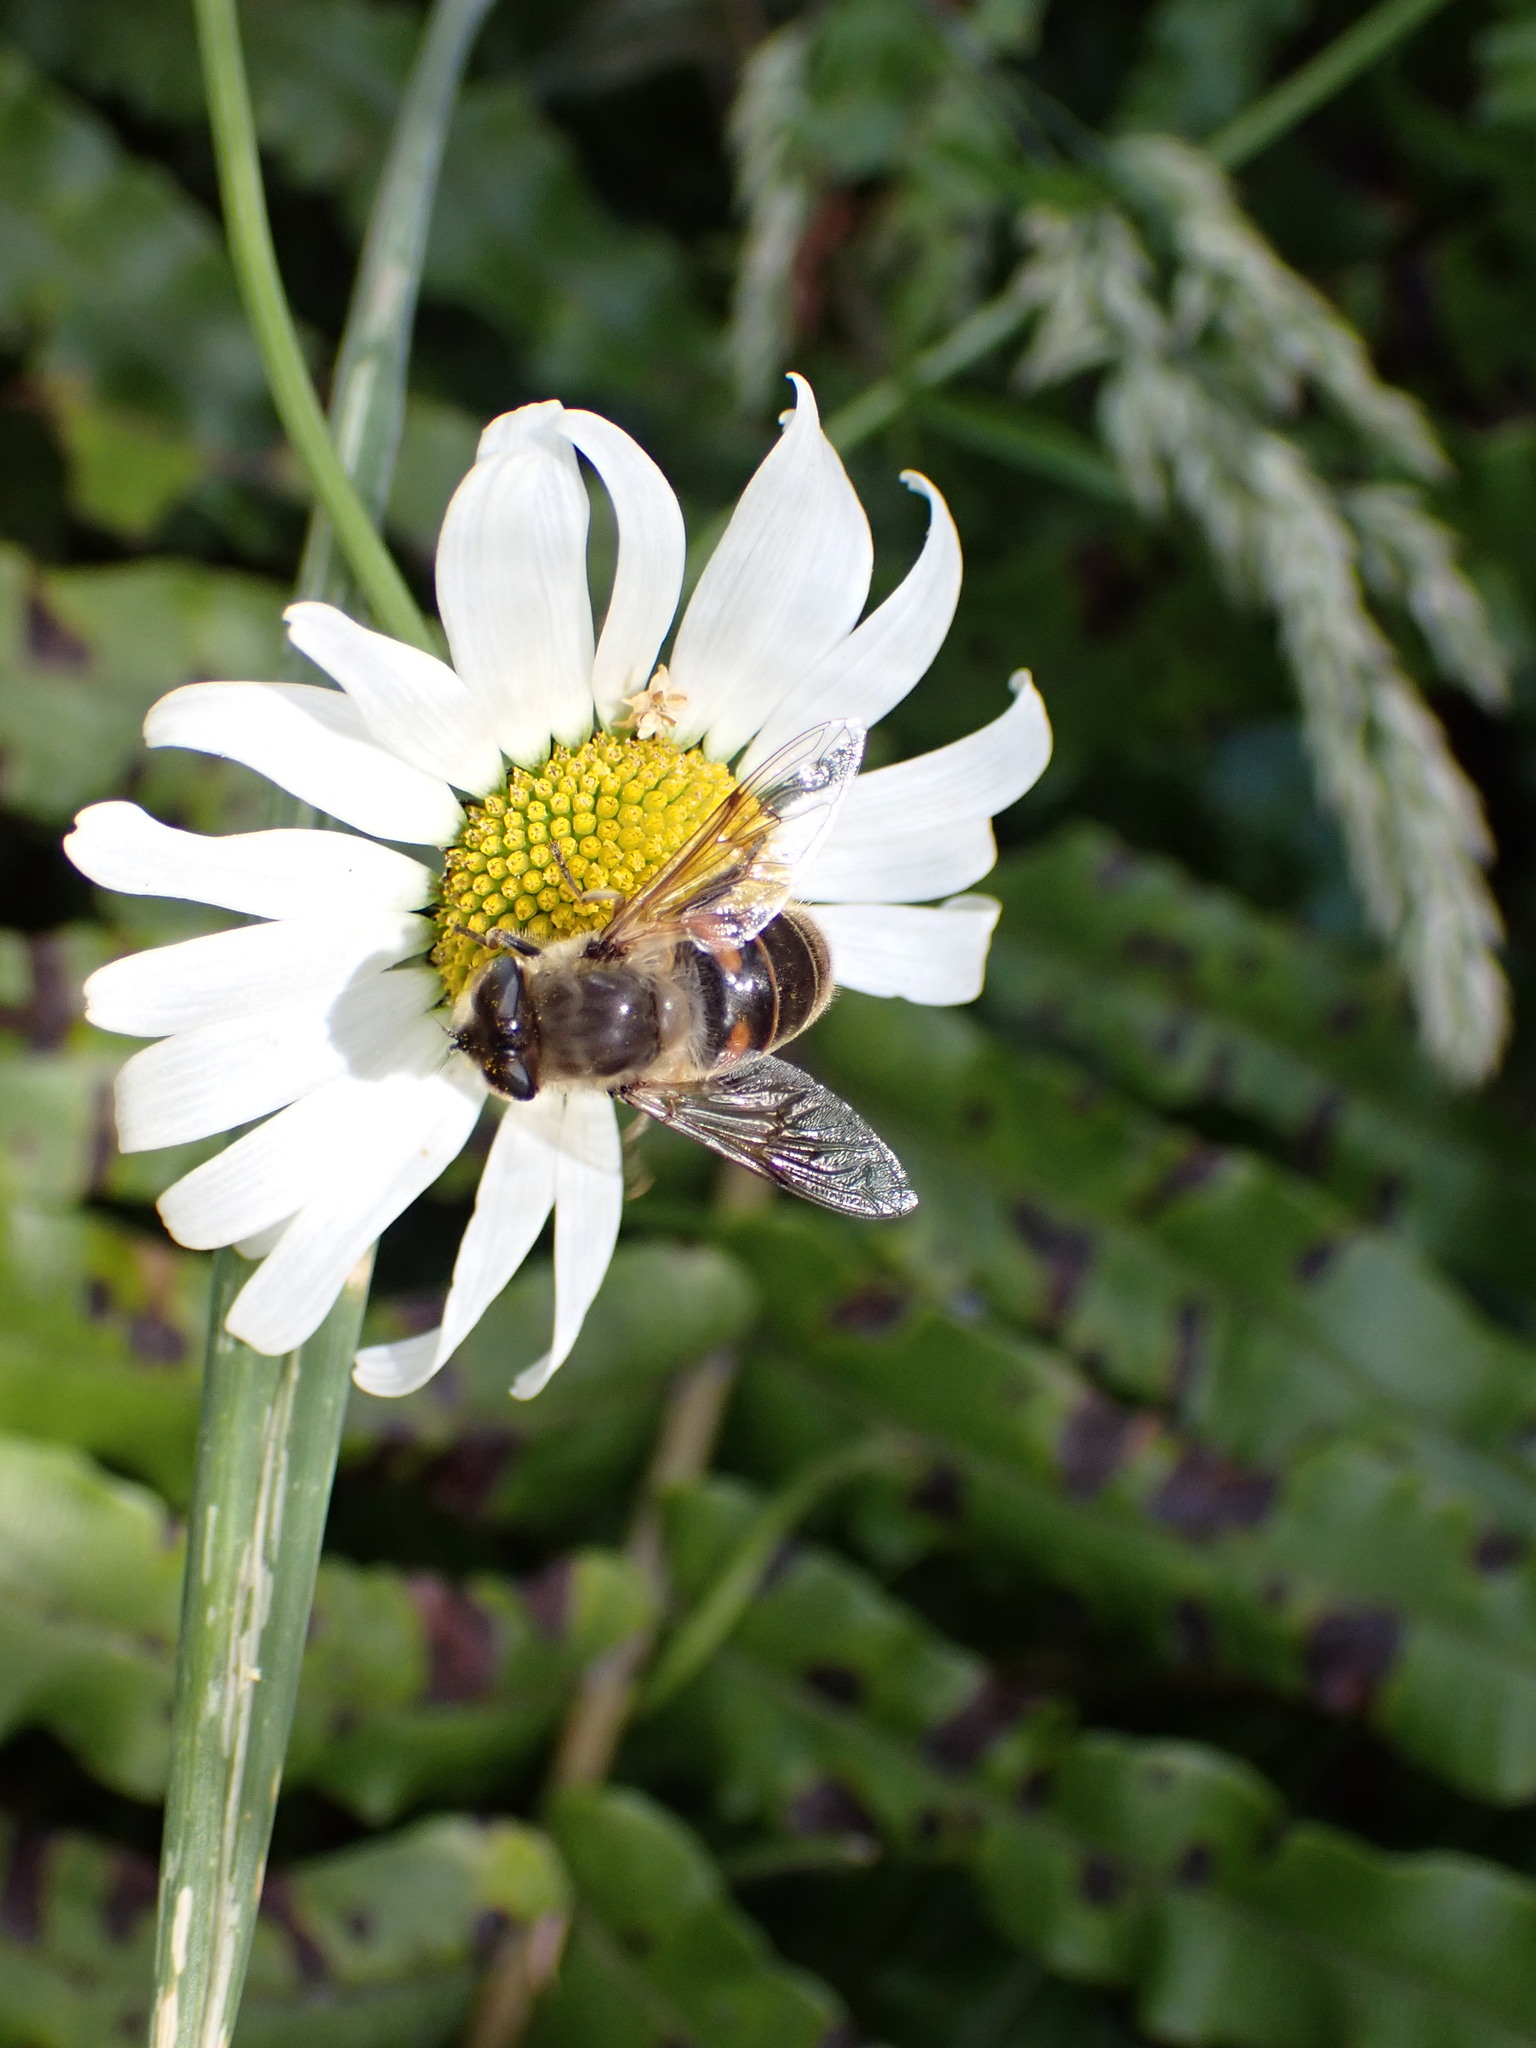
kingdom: Animalia
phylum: Arthropoda
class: Insecta
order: Diptera
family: Syrphidae
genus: Eristalis
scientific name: Eristalis tenax
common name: Drone fly
